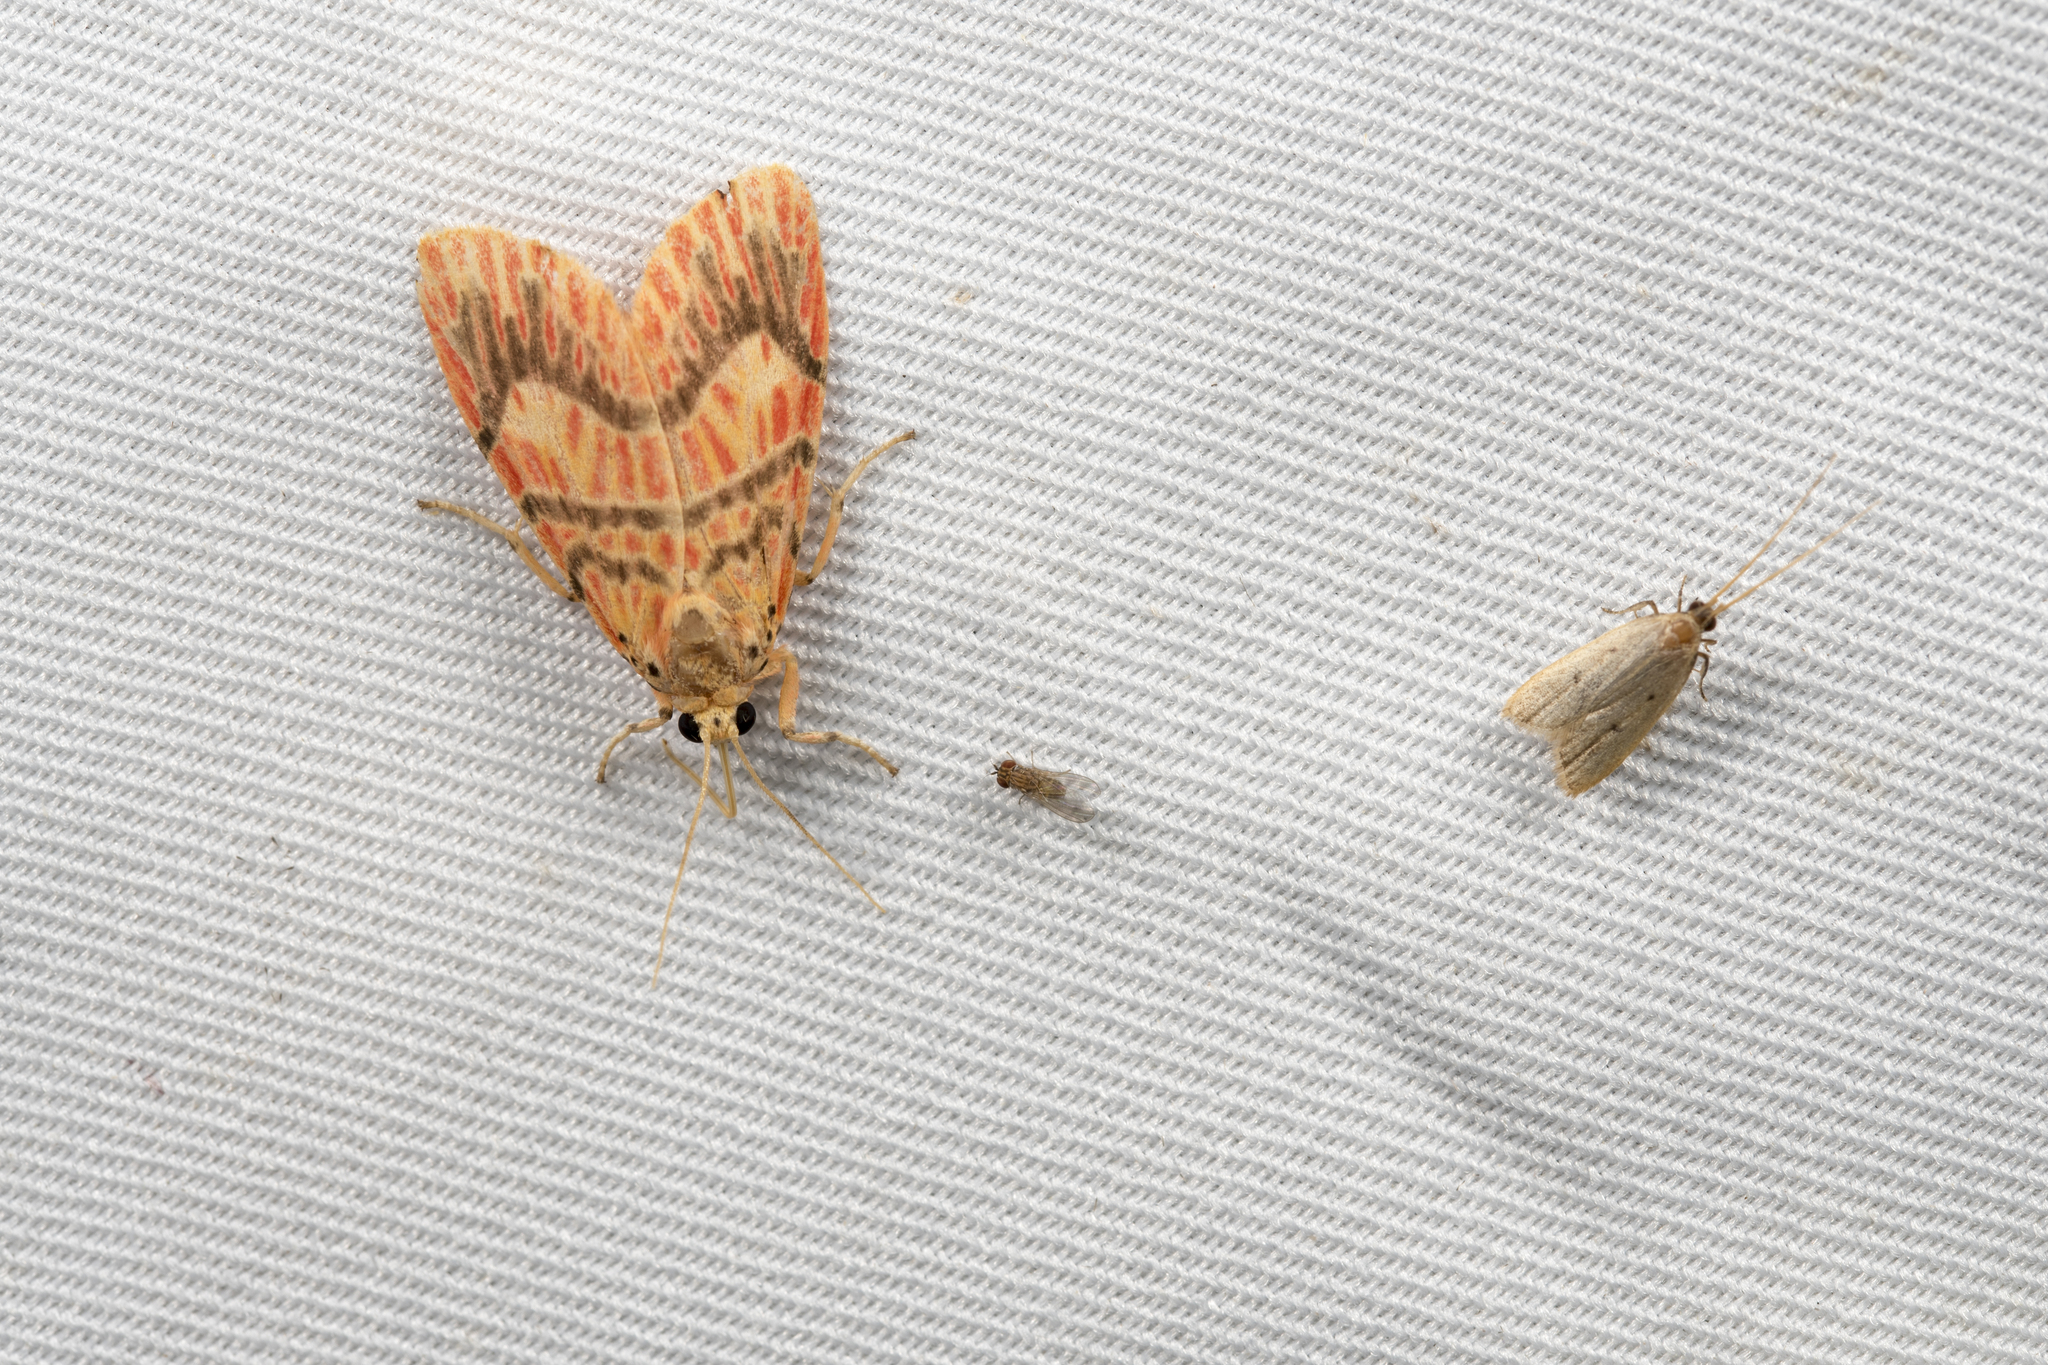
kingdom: Animalia
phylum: Arthropoda
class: Insecta
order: Lepidoptera
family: Erebidae
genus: Barsine
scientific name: Barsine sauteri
